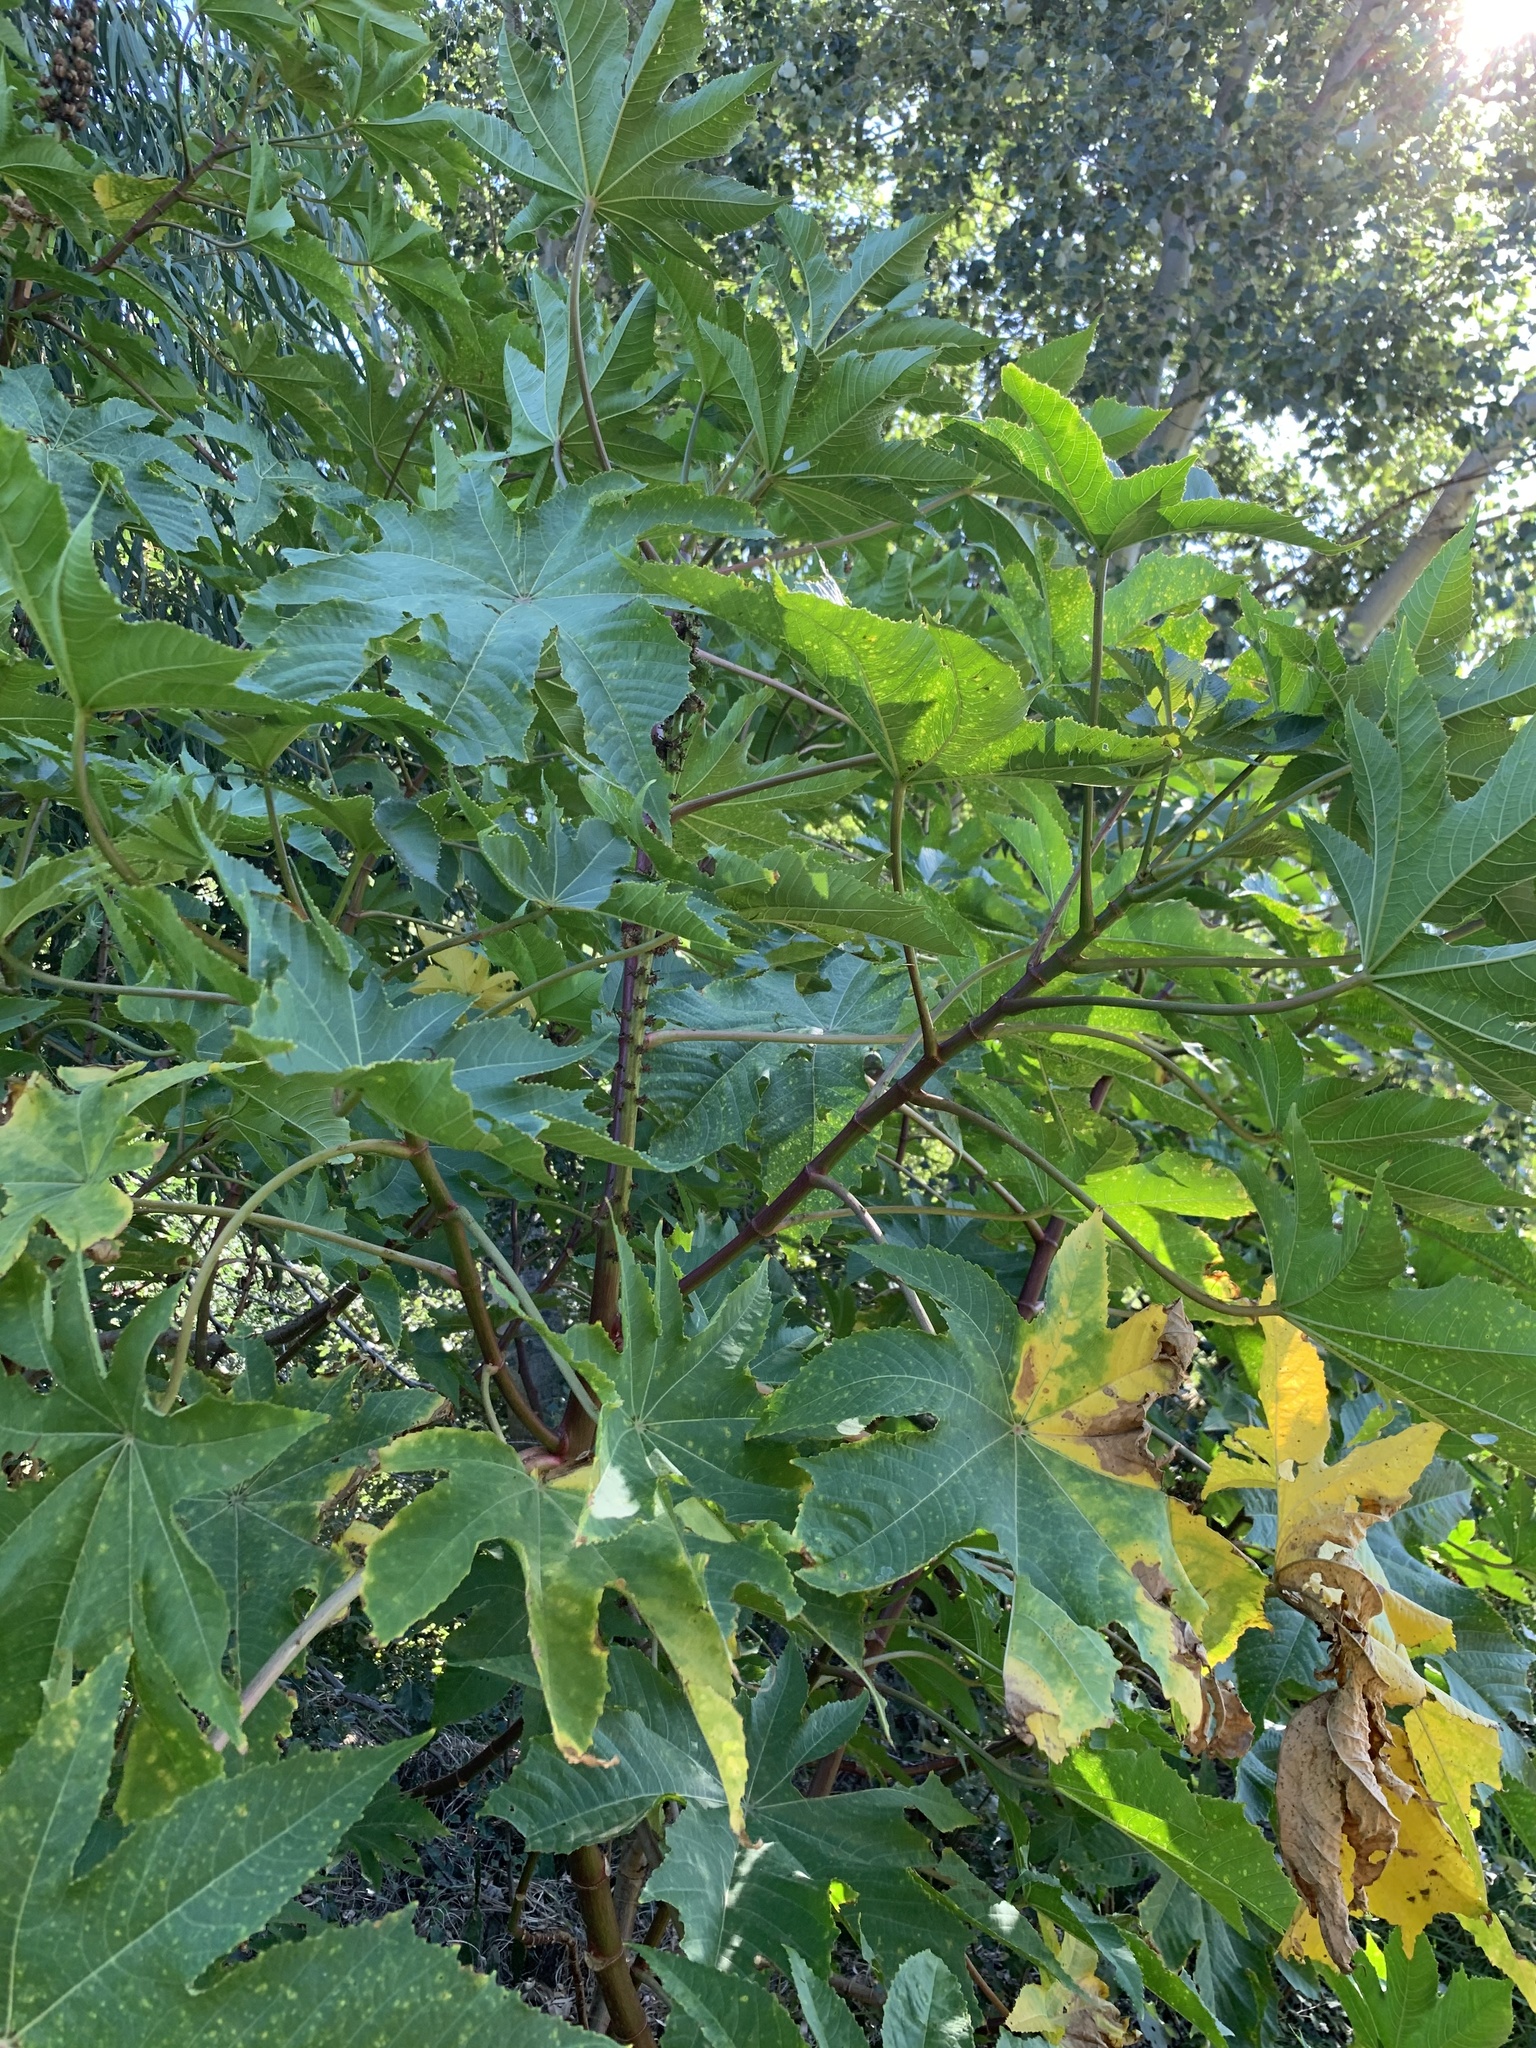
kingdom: Plantae
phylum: Tracheophyta
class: Magnoliopsida
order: Malpighiales
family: Euphorbiaceae
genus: Ricinus
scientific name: Ricinus communis
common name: Castor-oil-plant
